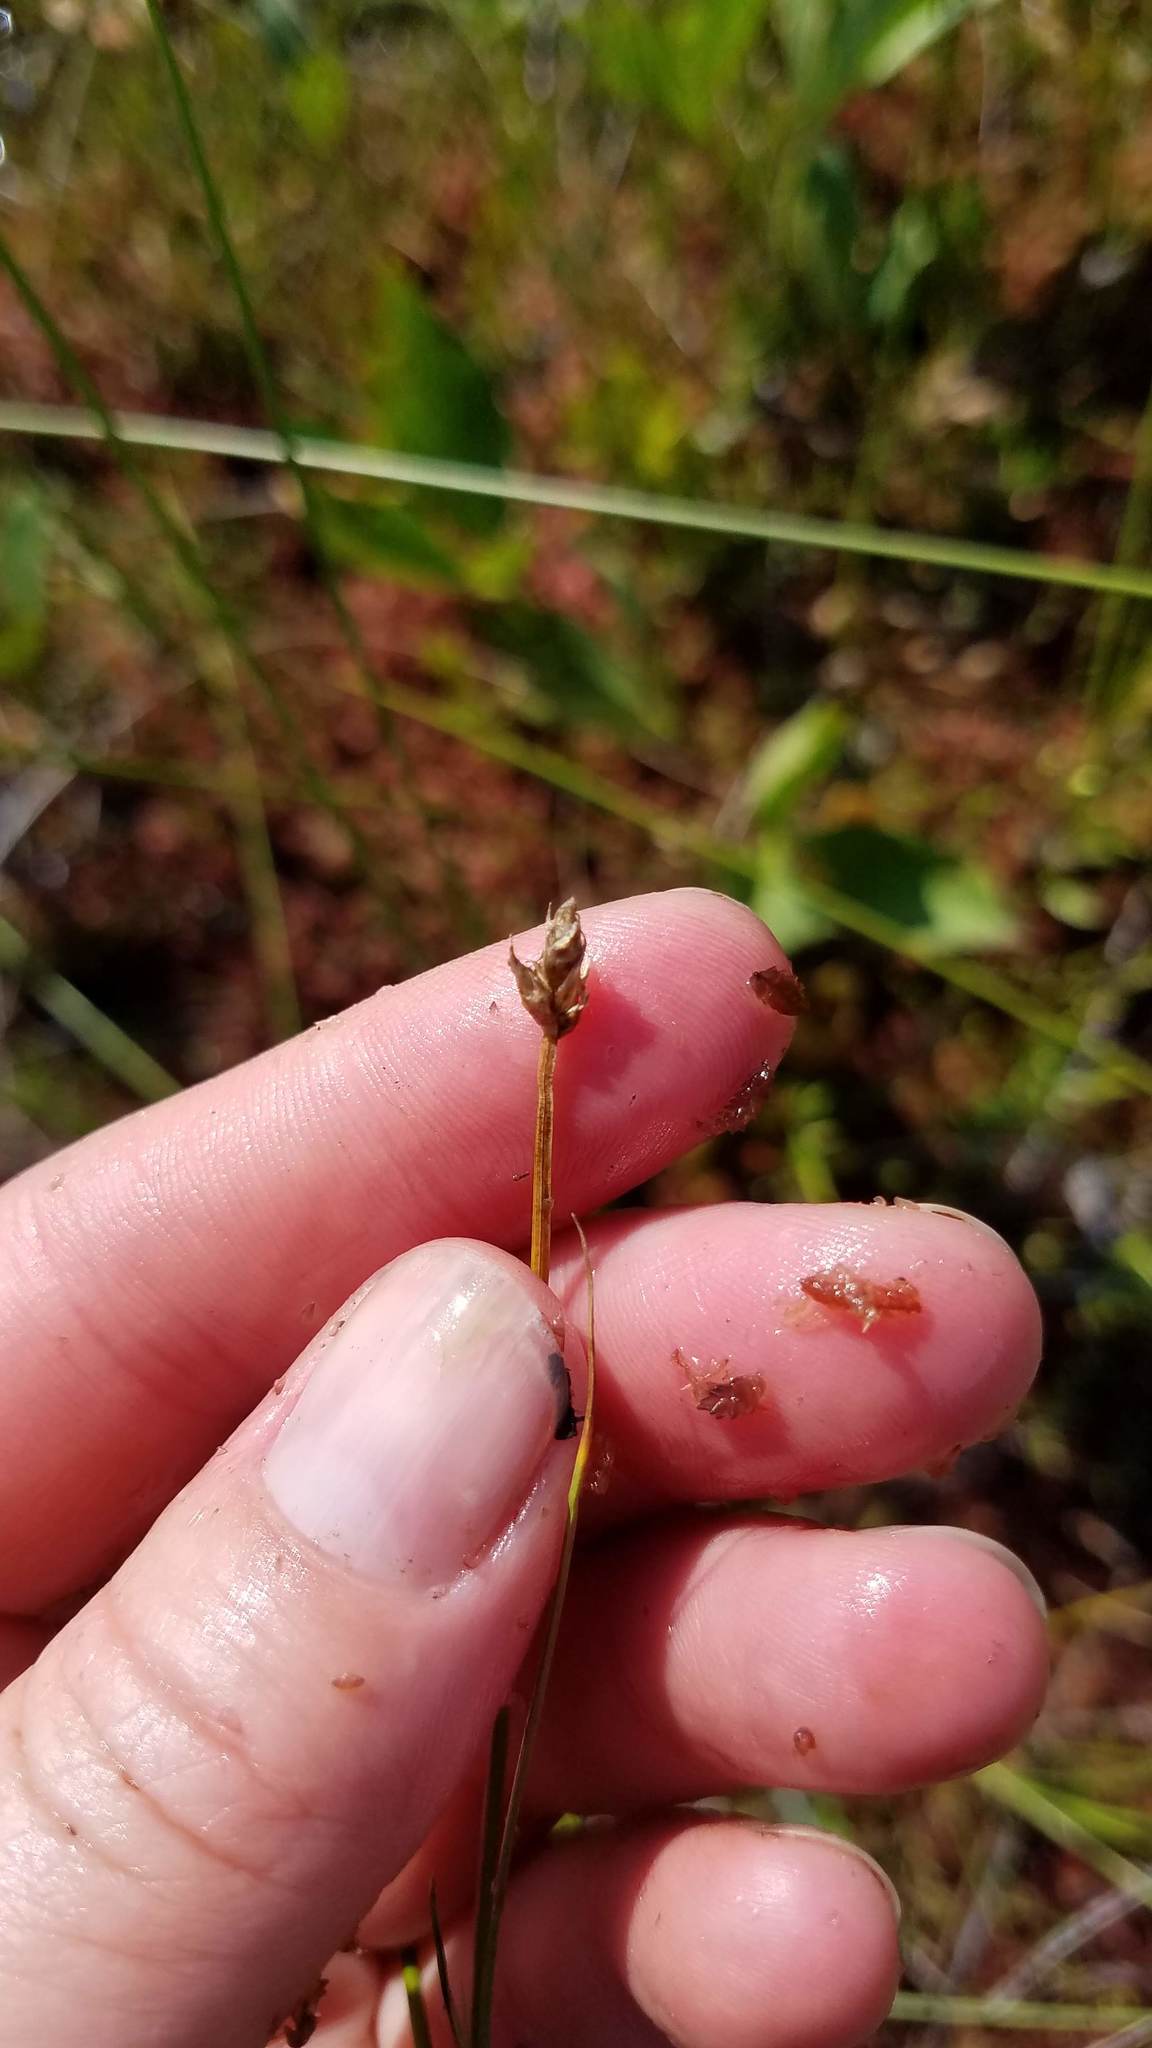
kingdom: Plantae
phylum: Tracheophyta
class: Liliopsida
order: Poales
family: Cyperaceae
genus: Carex
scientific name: Carex chordorrhiza
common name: String sedge
